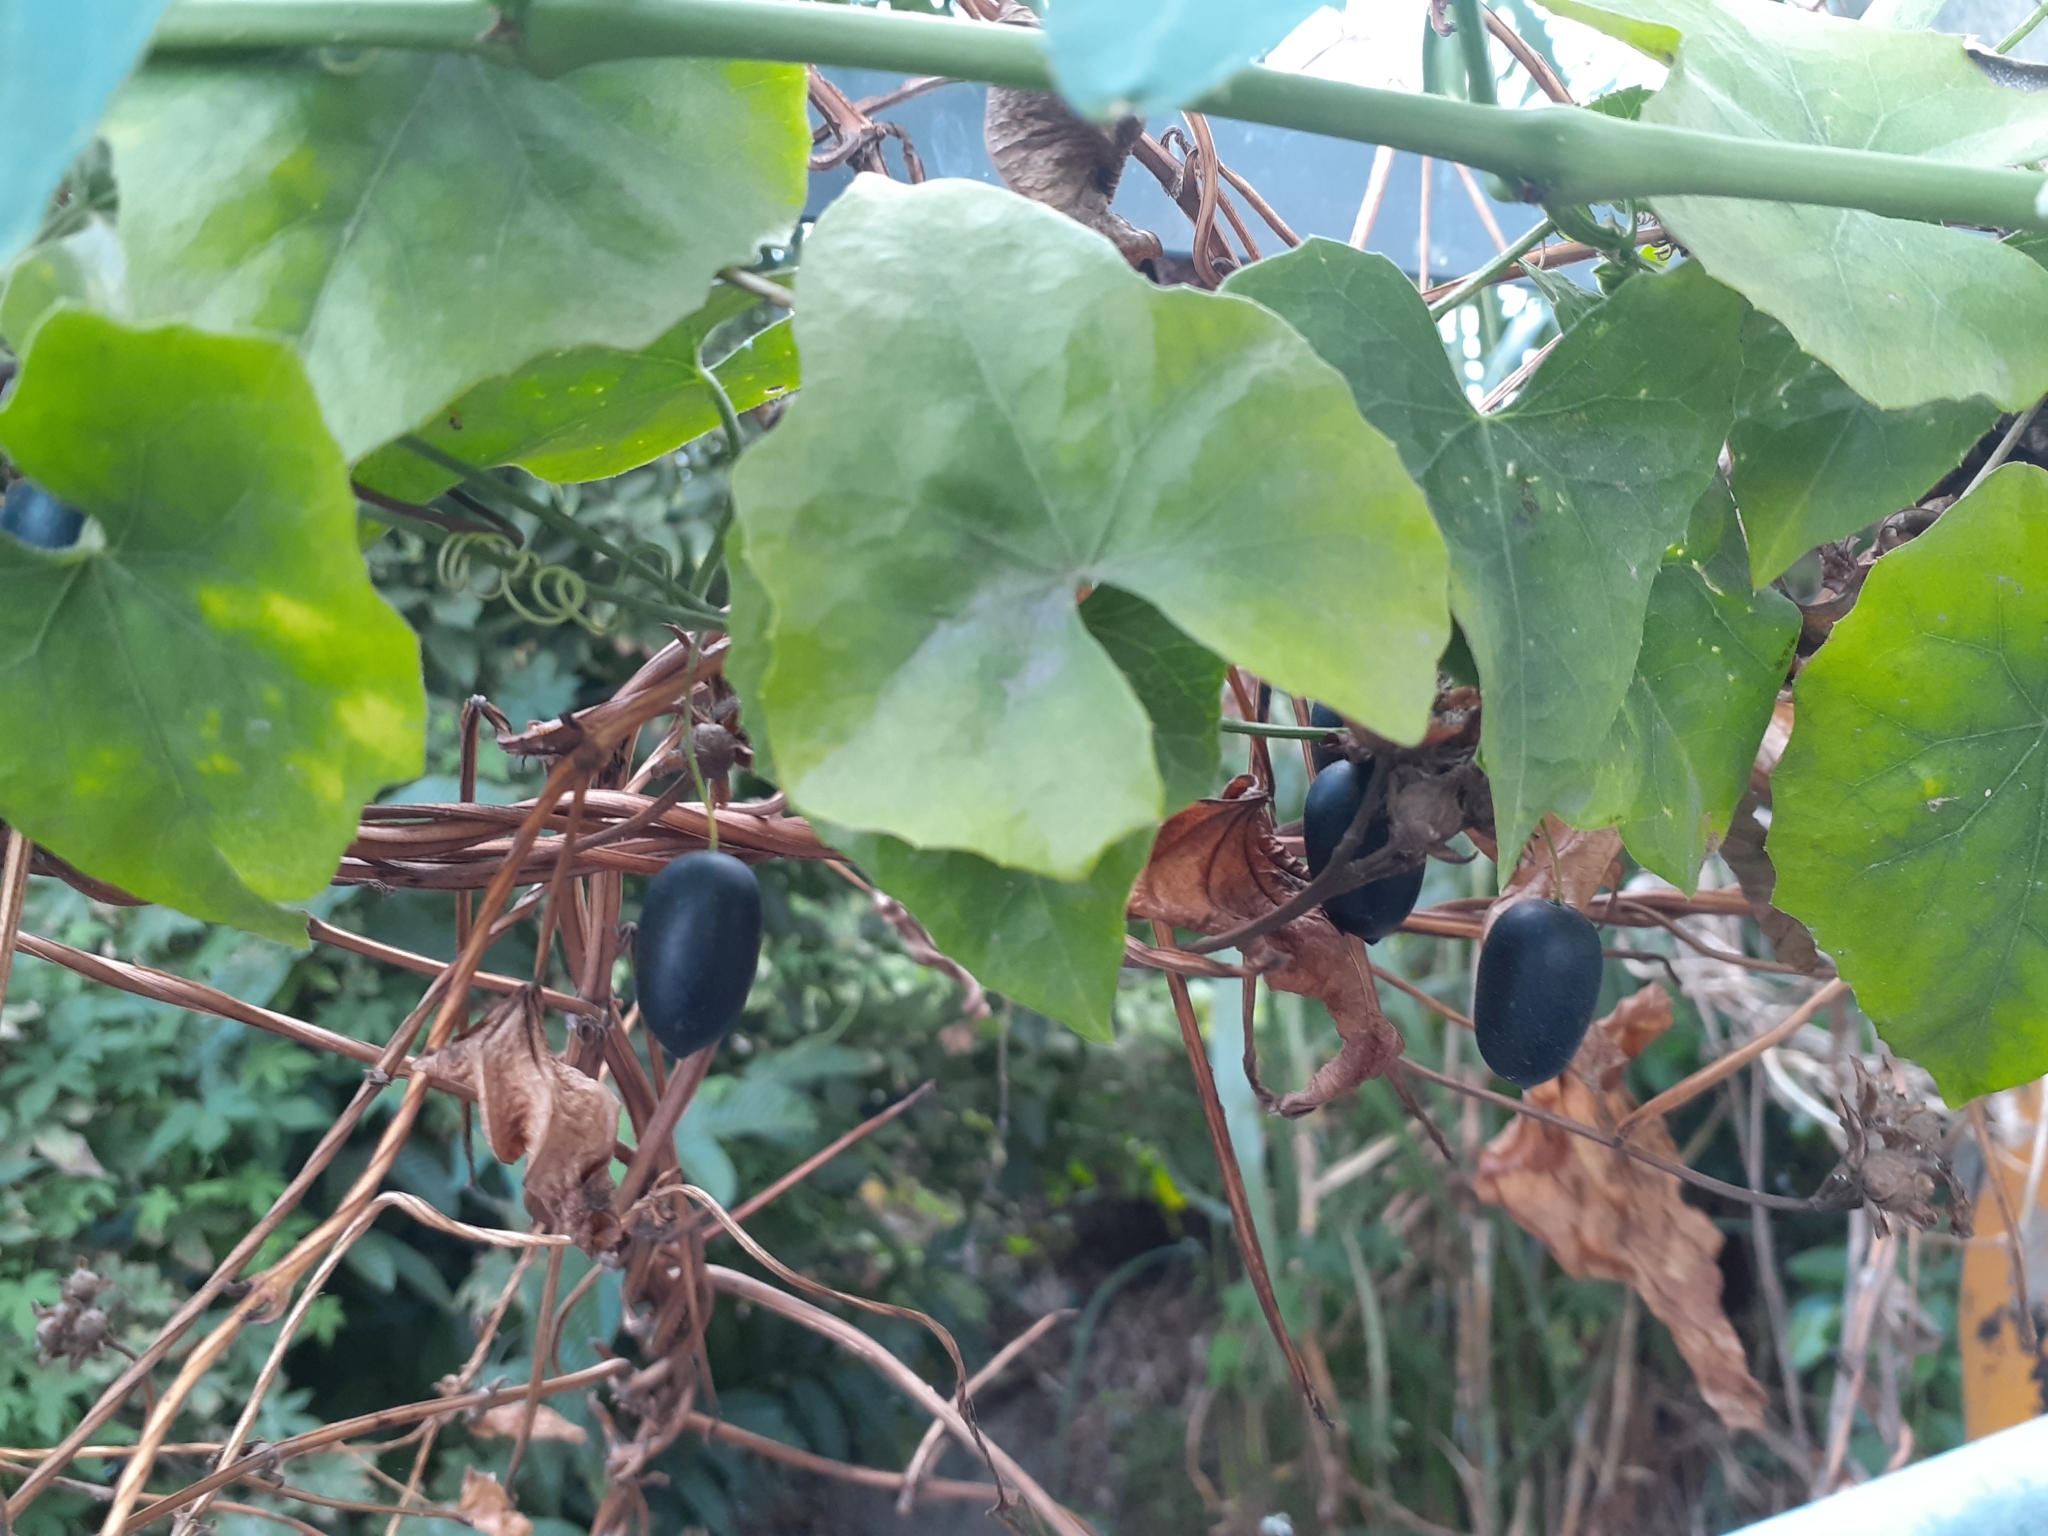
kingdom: Plantae
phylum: Tracheophyta
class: Magnoliopsida
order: Cucurbitales
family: Cucurbitaceae
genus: Melothria
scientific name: Melothria pendula
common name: Creeping-cucumber
